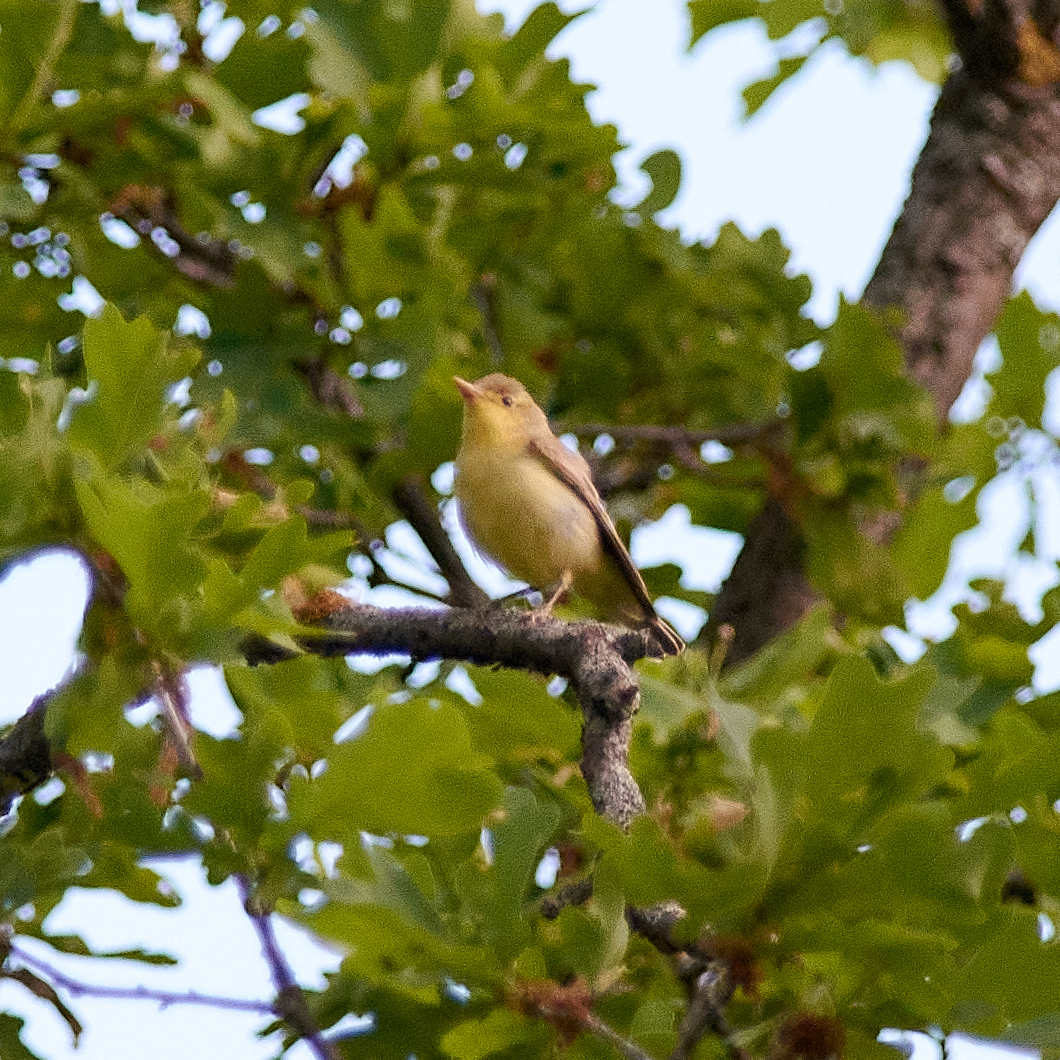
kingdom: Animalia
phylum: Chordata
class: Aves
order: Passeriformes
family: Acrocephalidae
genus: Hippolais
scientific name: Hippolais icterina
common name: Icterine warbler
